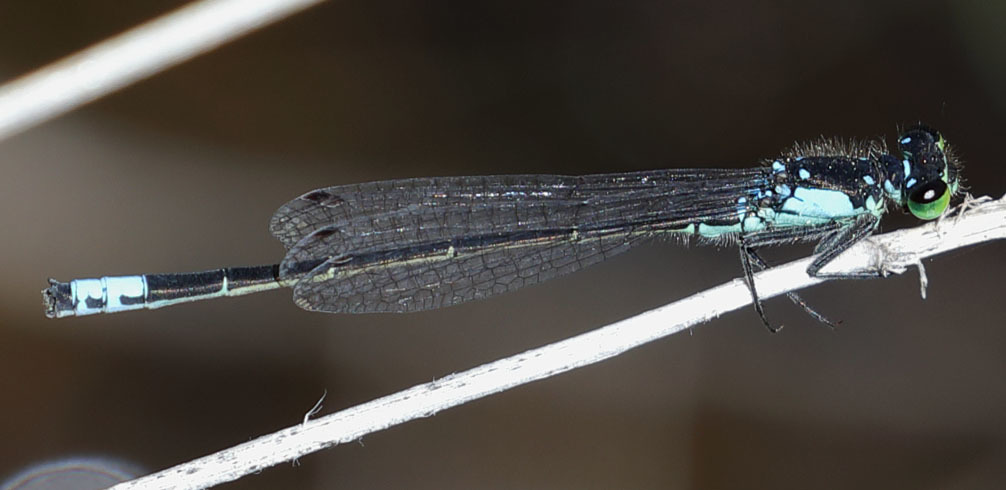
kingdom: Animalia
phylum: Arthropoda
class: Insecta
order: Odonata
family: Coenagrionidae
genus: Ischnura
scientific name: Ischnura cervula
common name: Pacific forktail
